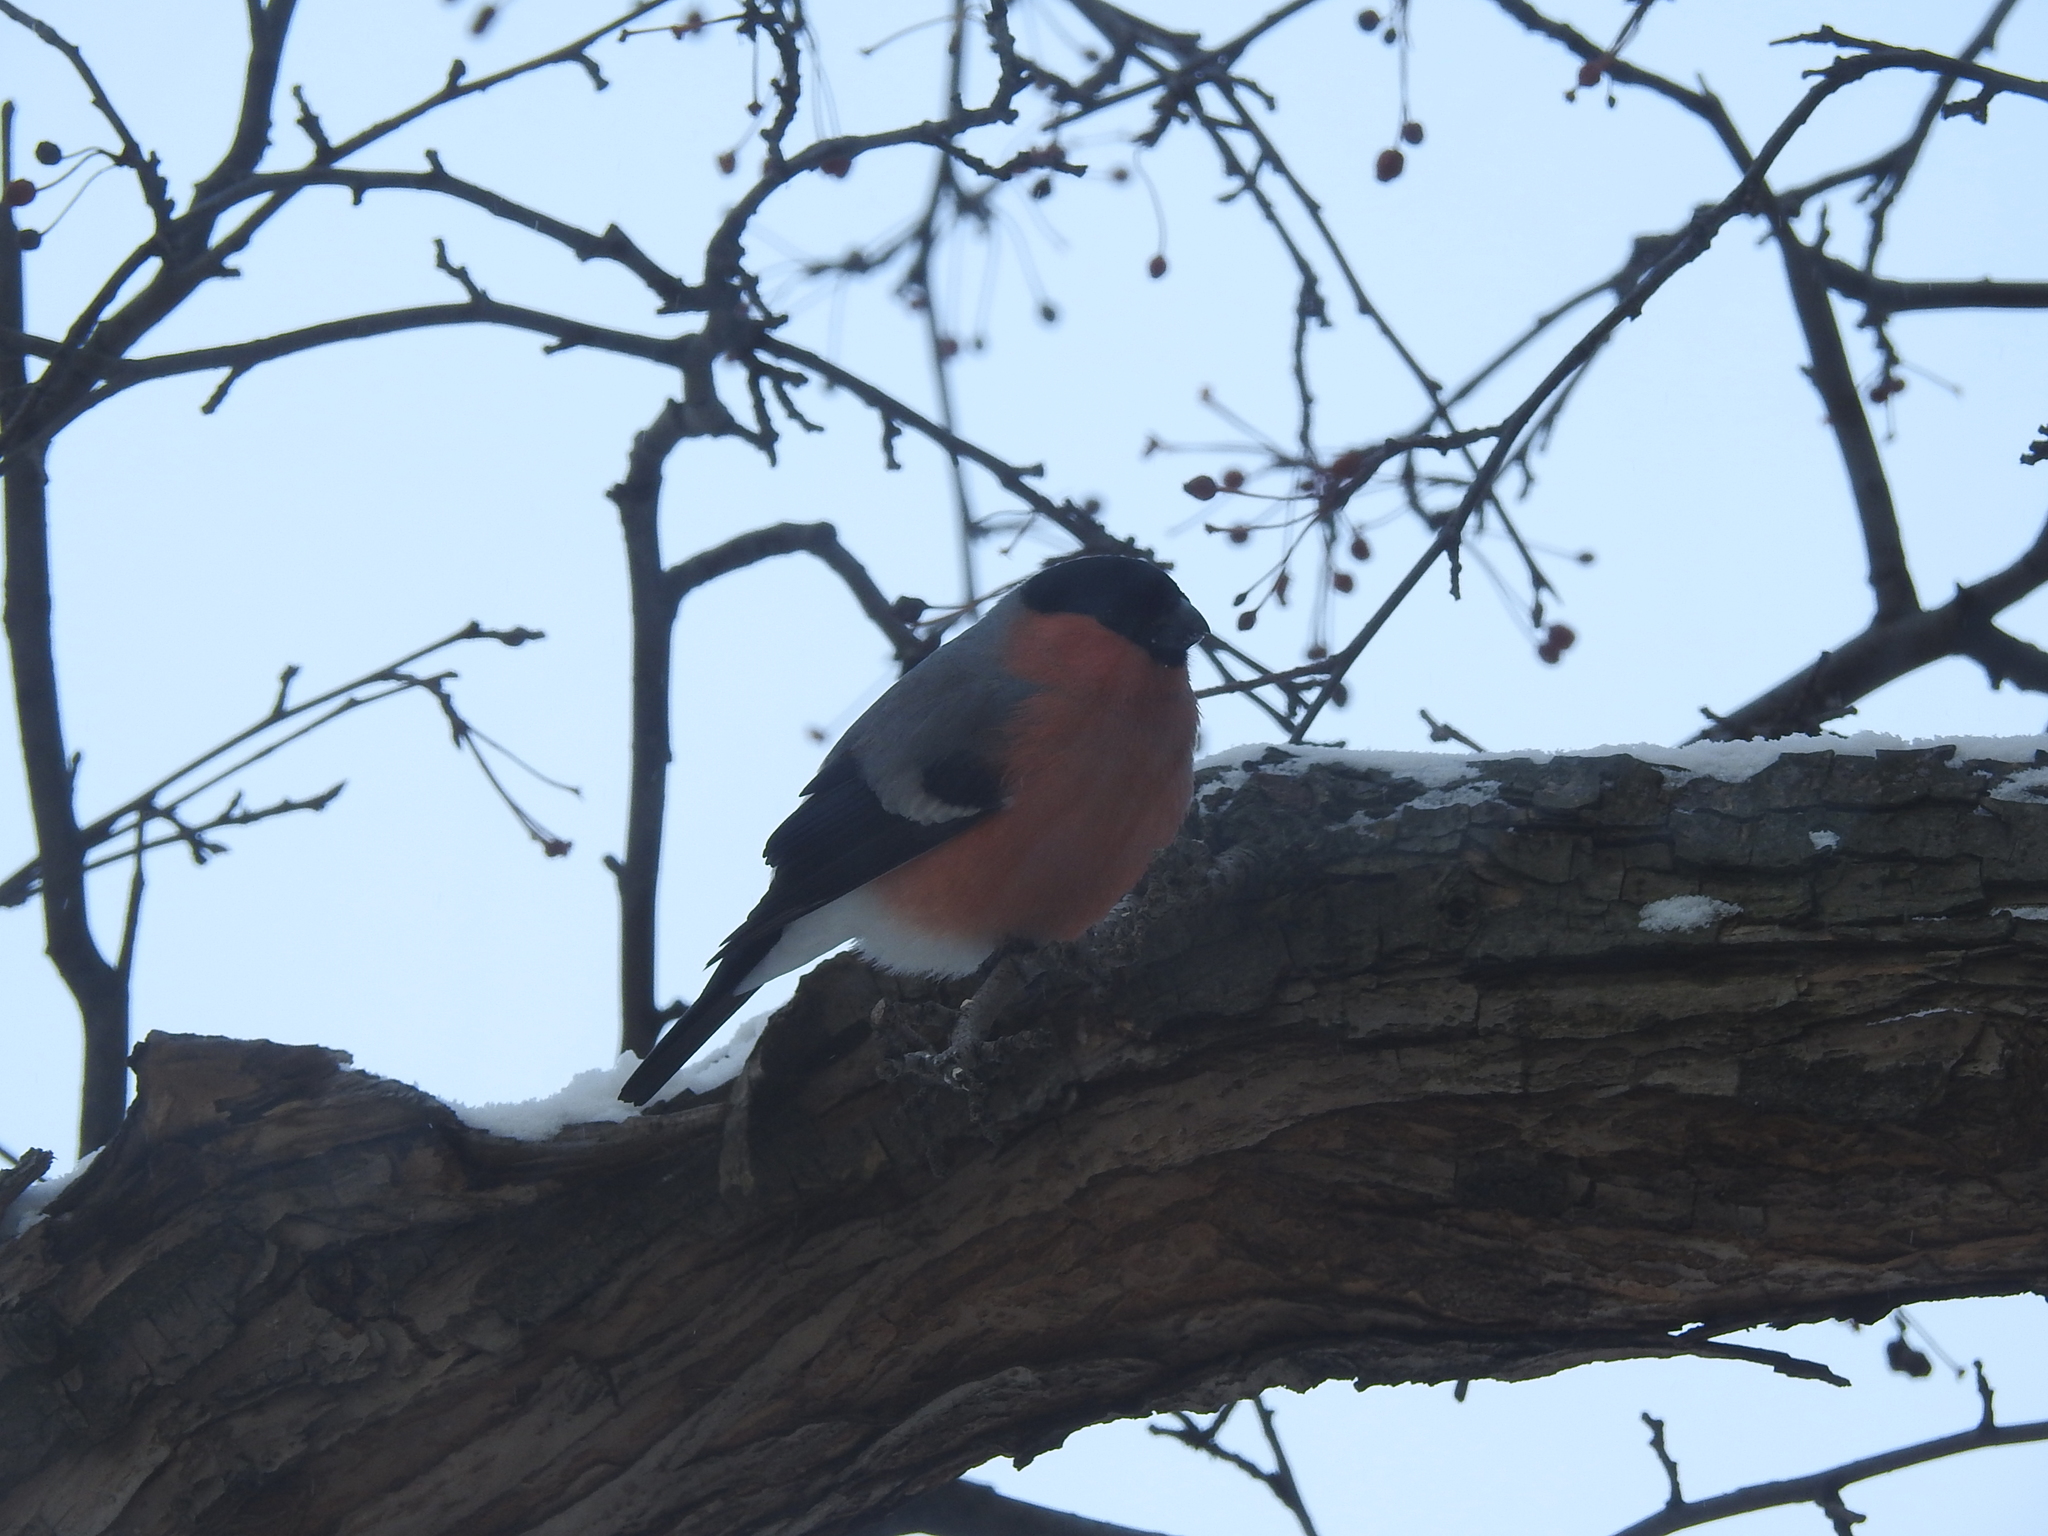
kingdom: Animalia
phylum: Chordata
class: Aves
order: Passeriformes
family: Fringillidae
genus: Pyrrhula
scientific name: Pyrrhula pyrrhula
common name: Eurasian bullfinch
